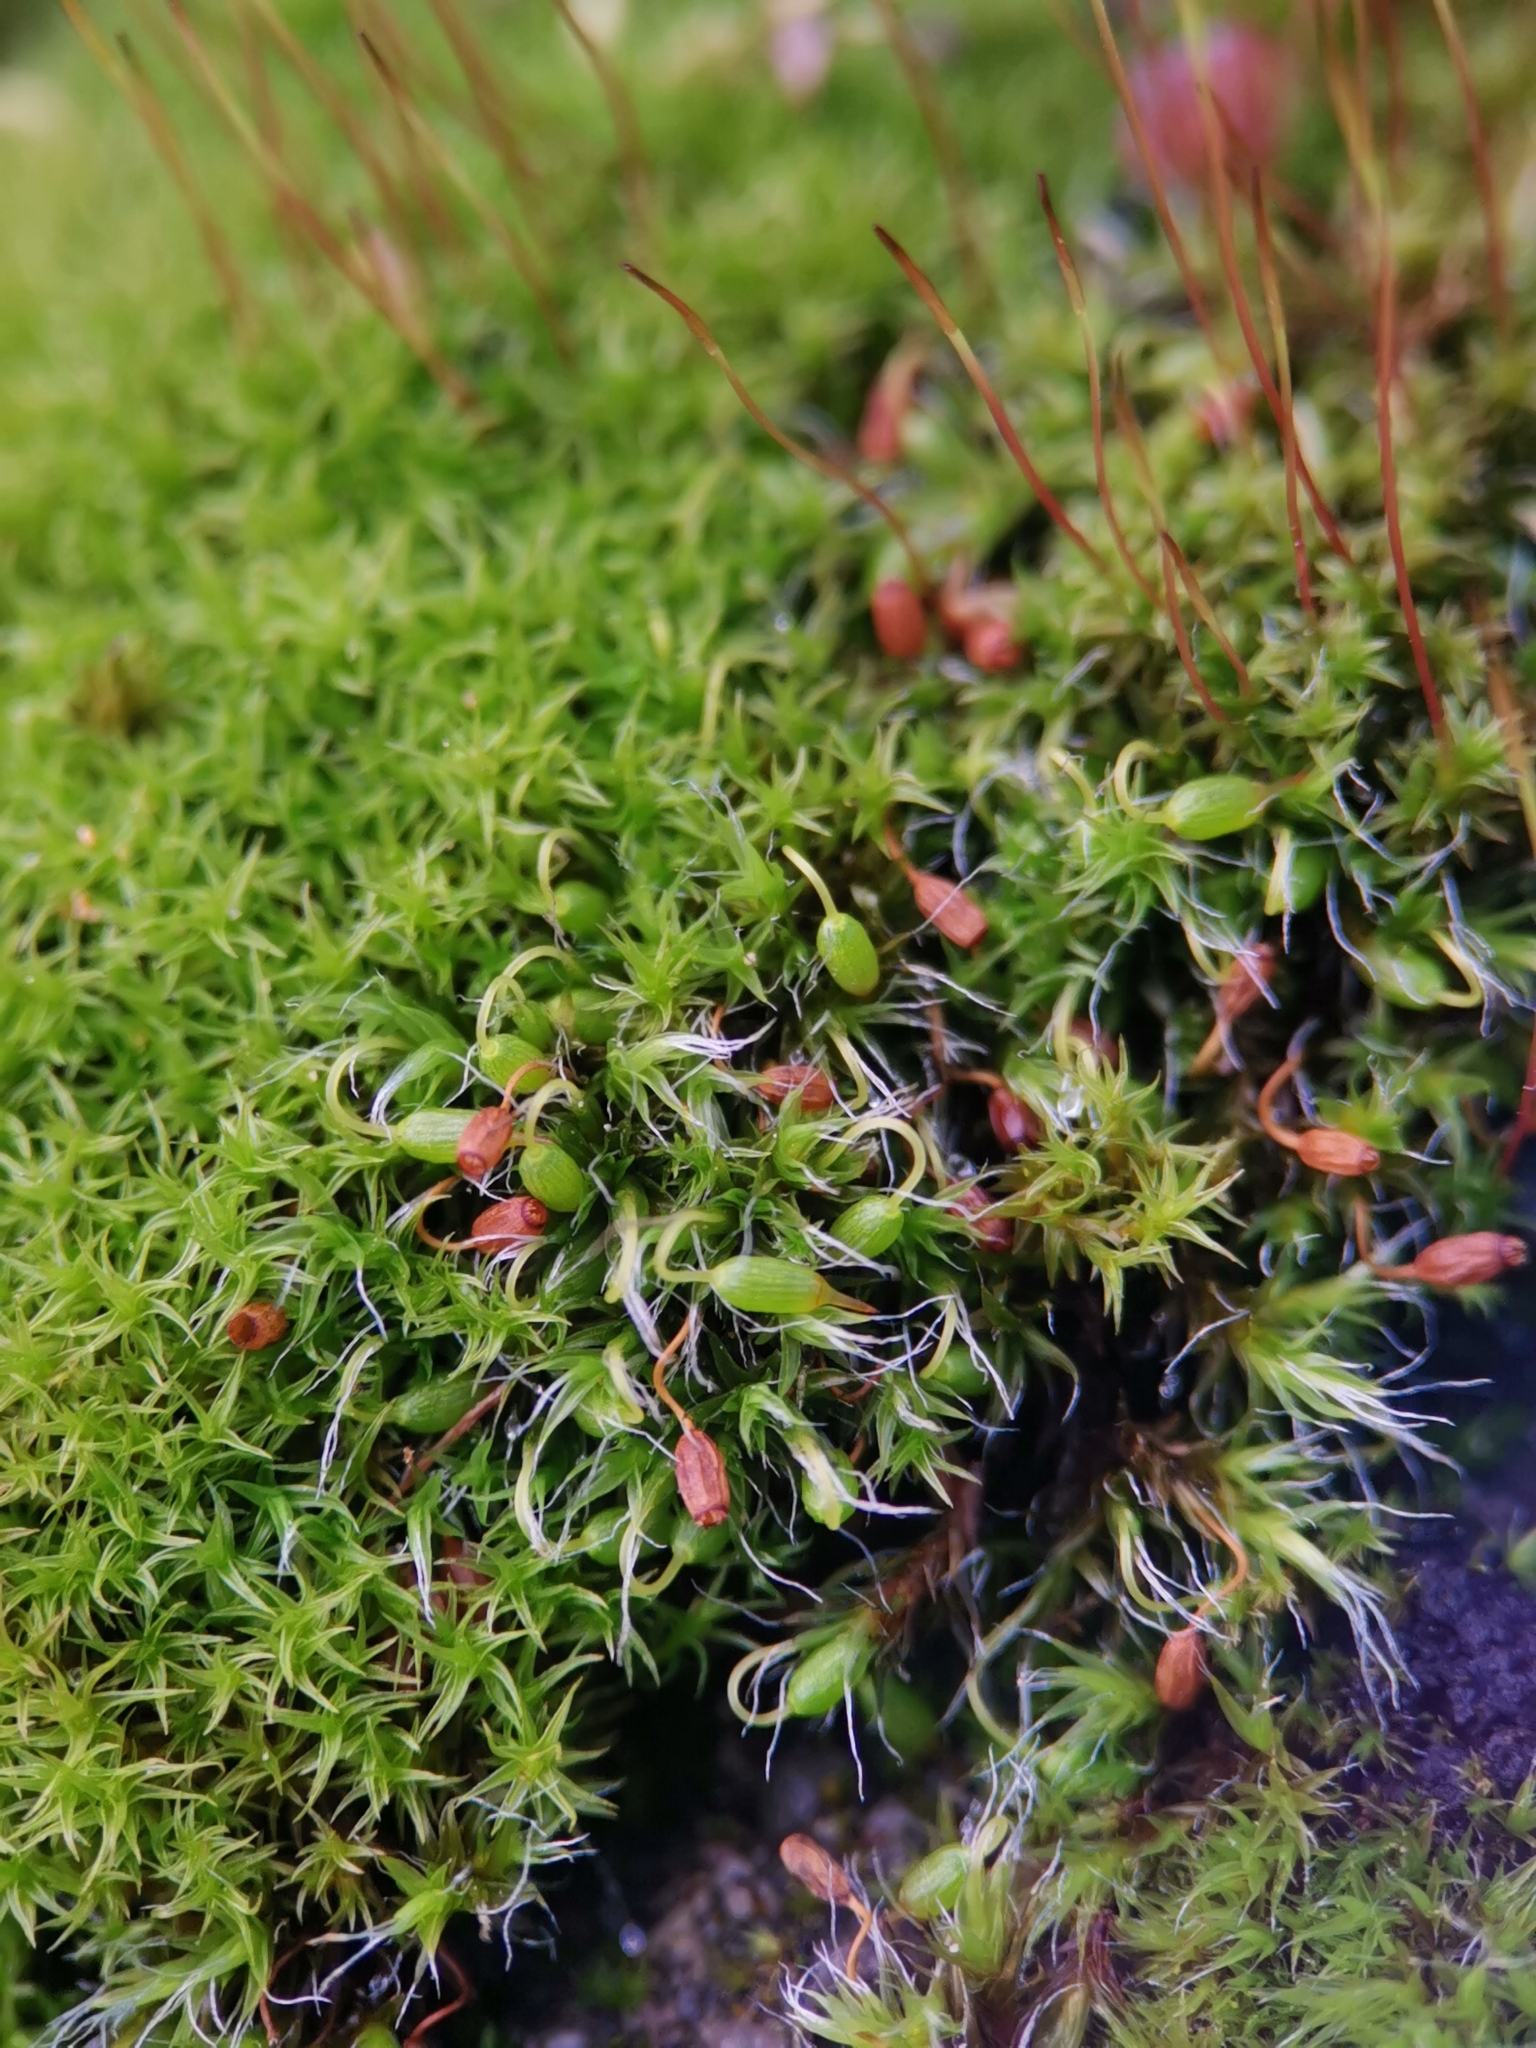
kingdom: Plantae
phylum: Bryophyta
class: Bryopsida
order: Grimmiales
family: Grimmiaceae
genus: Grimmia
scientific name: Grimmia pulvinata
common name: Grey-cushioned grimmia
